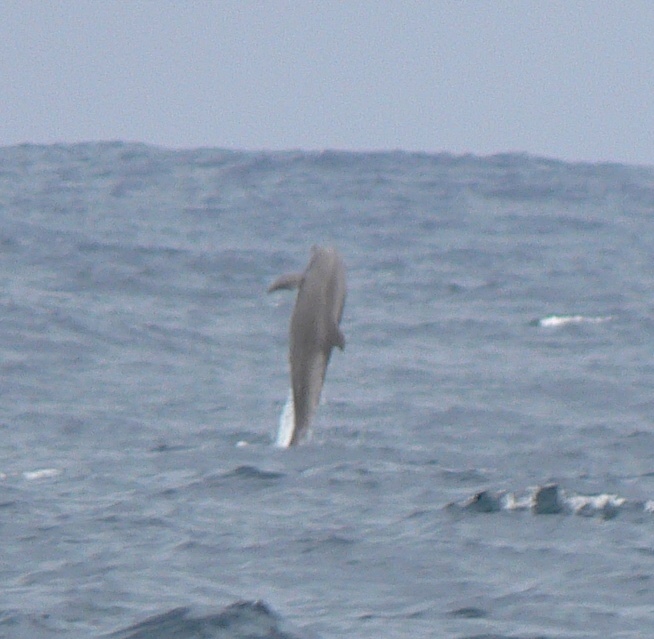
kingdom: Animalia
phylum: Chordata
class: Mammalia
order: Cetacea
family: Delphinidae
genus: Tursiops
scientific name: Tursiops truncatus
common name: Bottlenose dolphin
